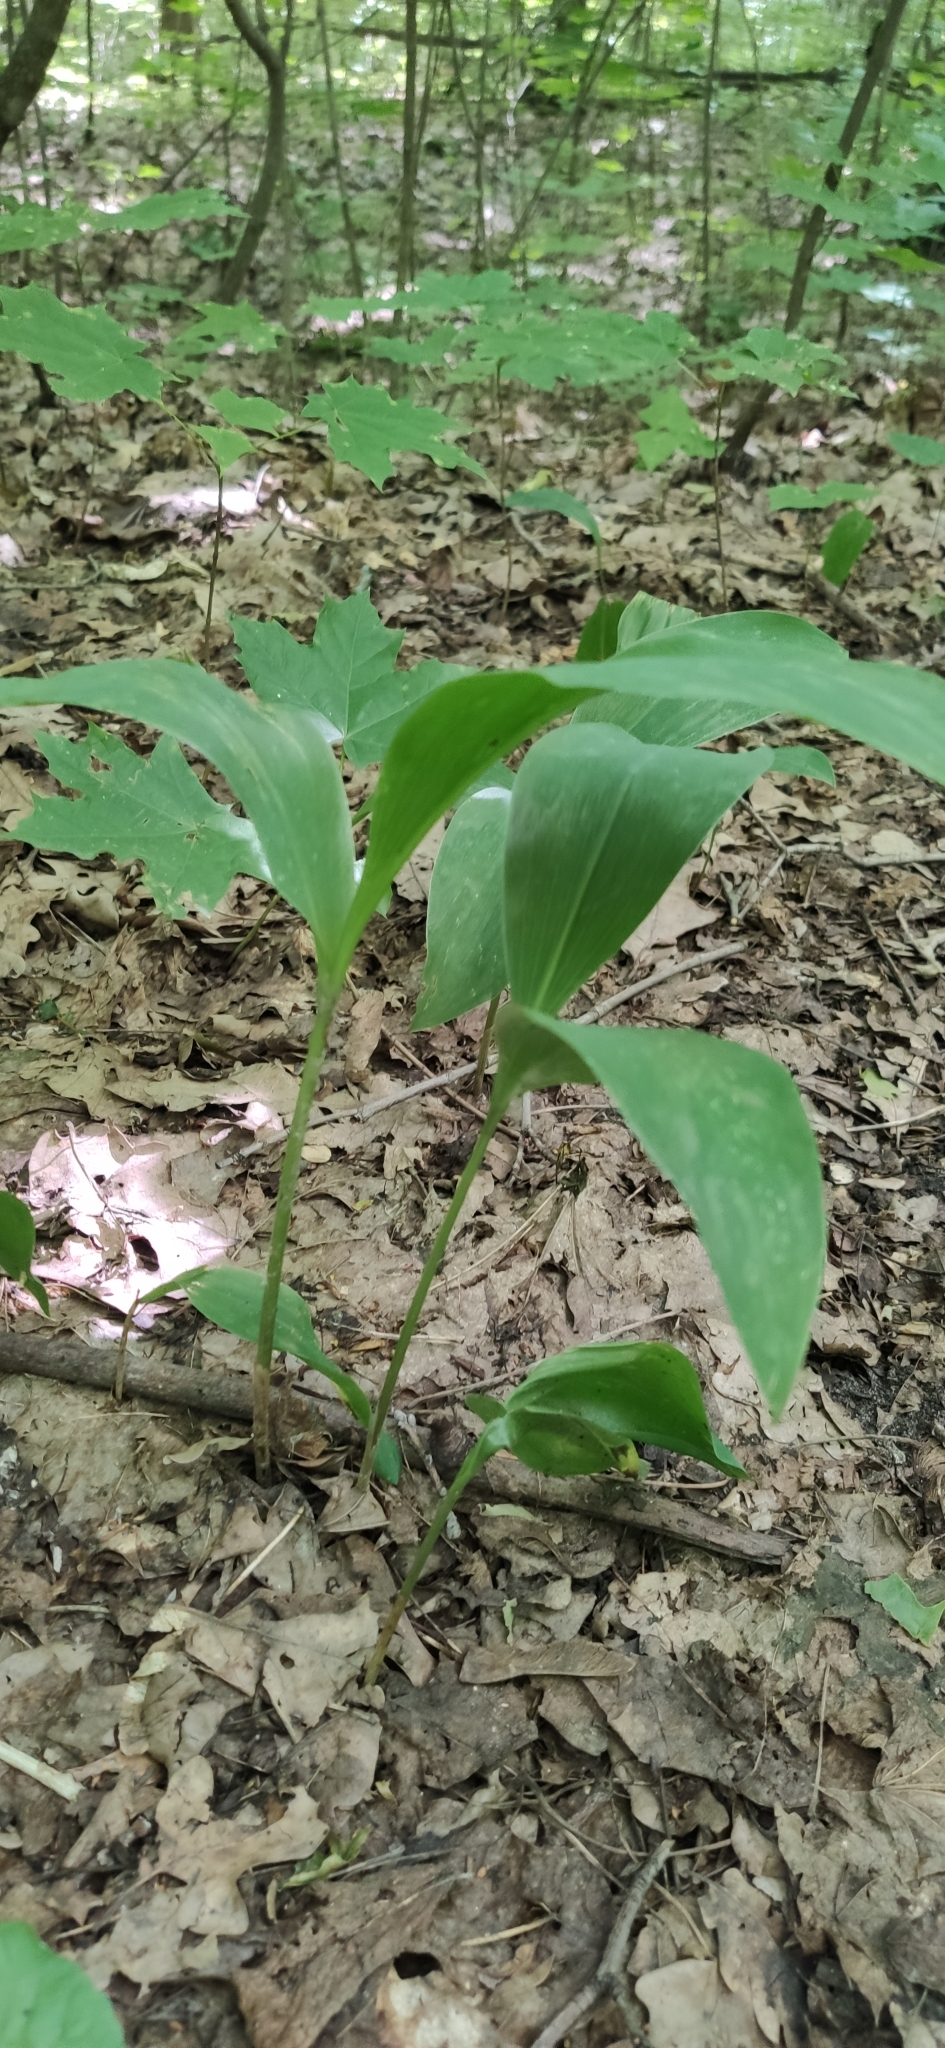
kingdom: Plantae
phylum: Tracheophyta
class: Liliopsida
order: Asparagales
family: Asparagaceae
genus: Convallaria
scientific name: Convallaria majalis
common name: Lily-of-the-valley
